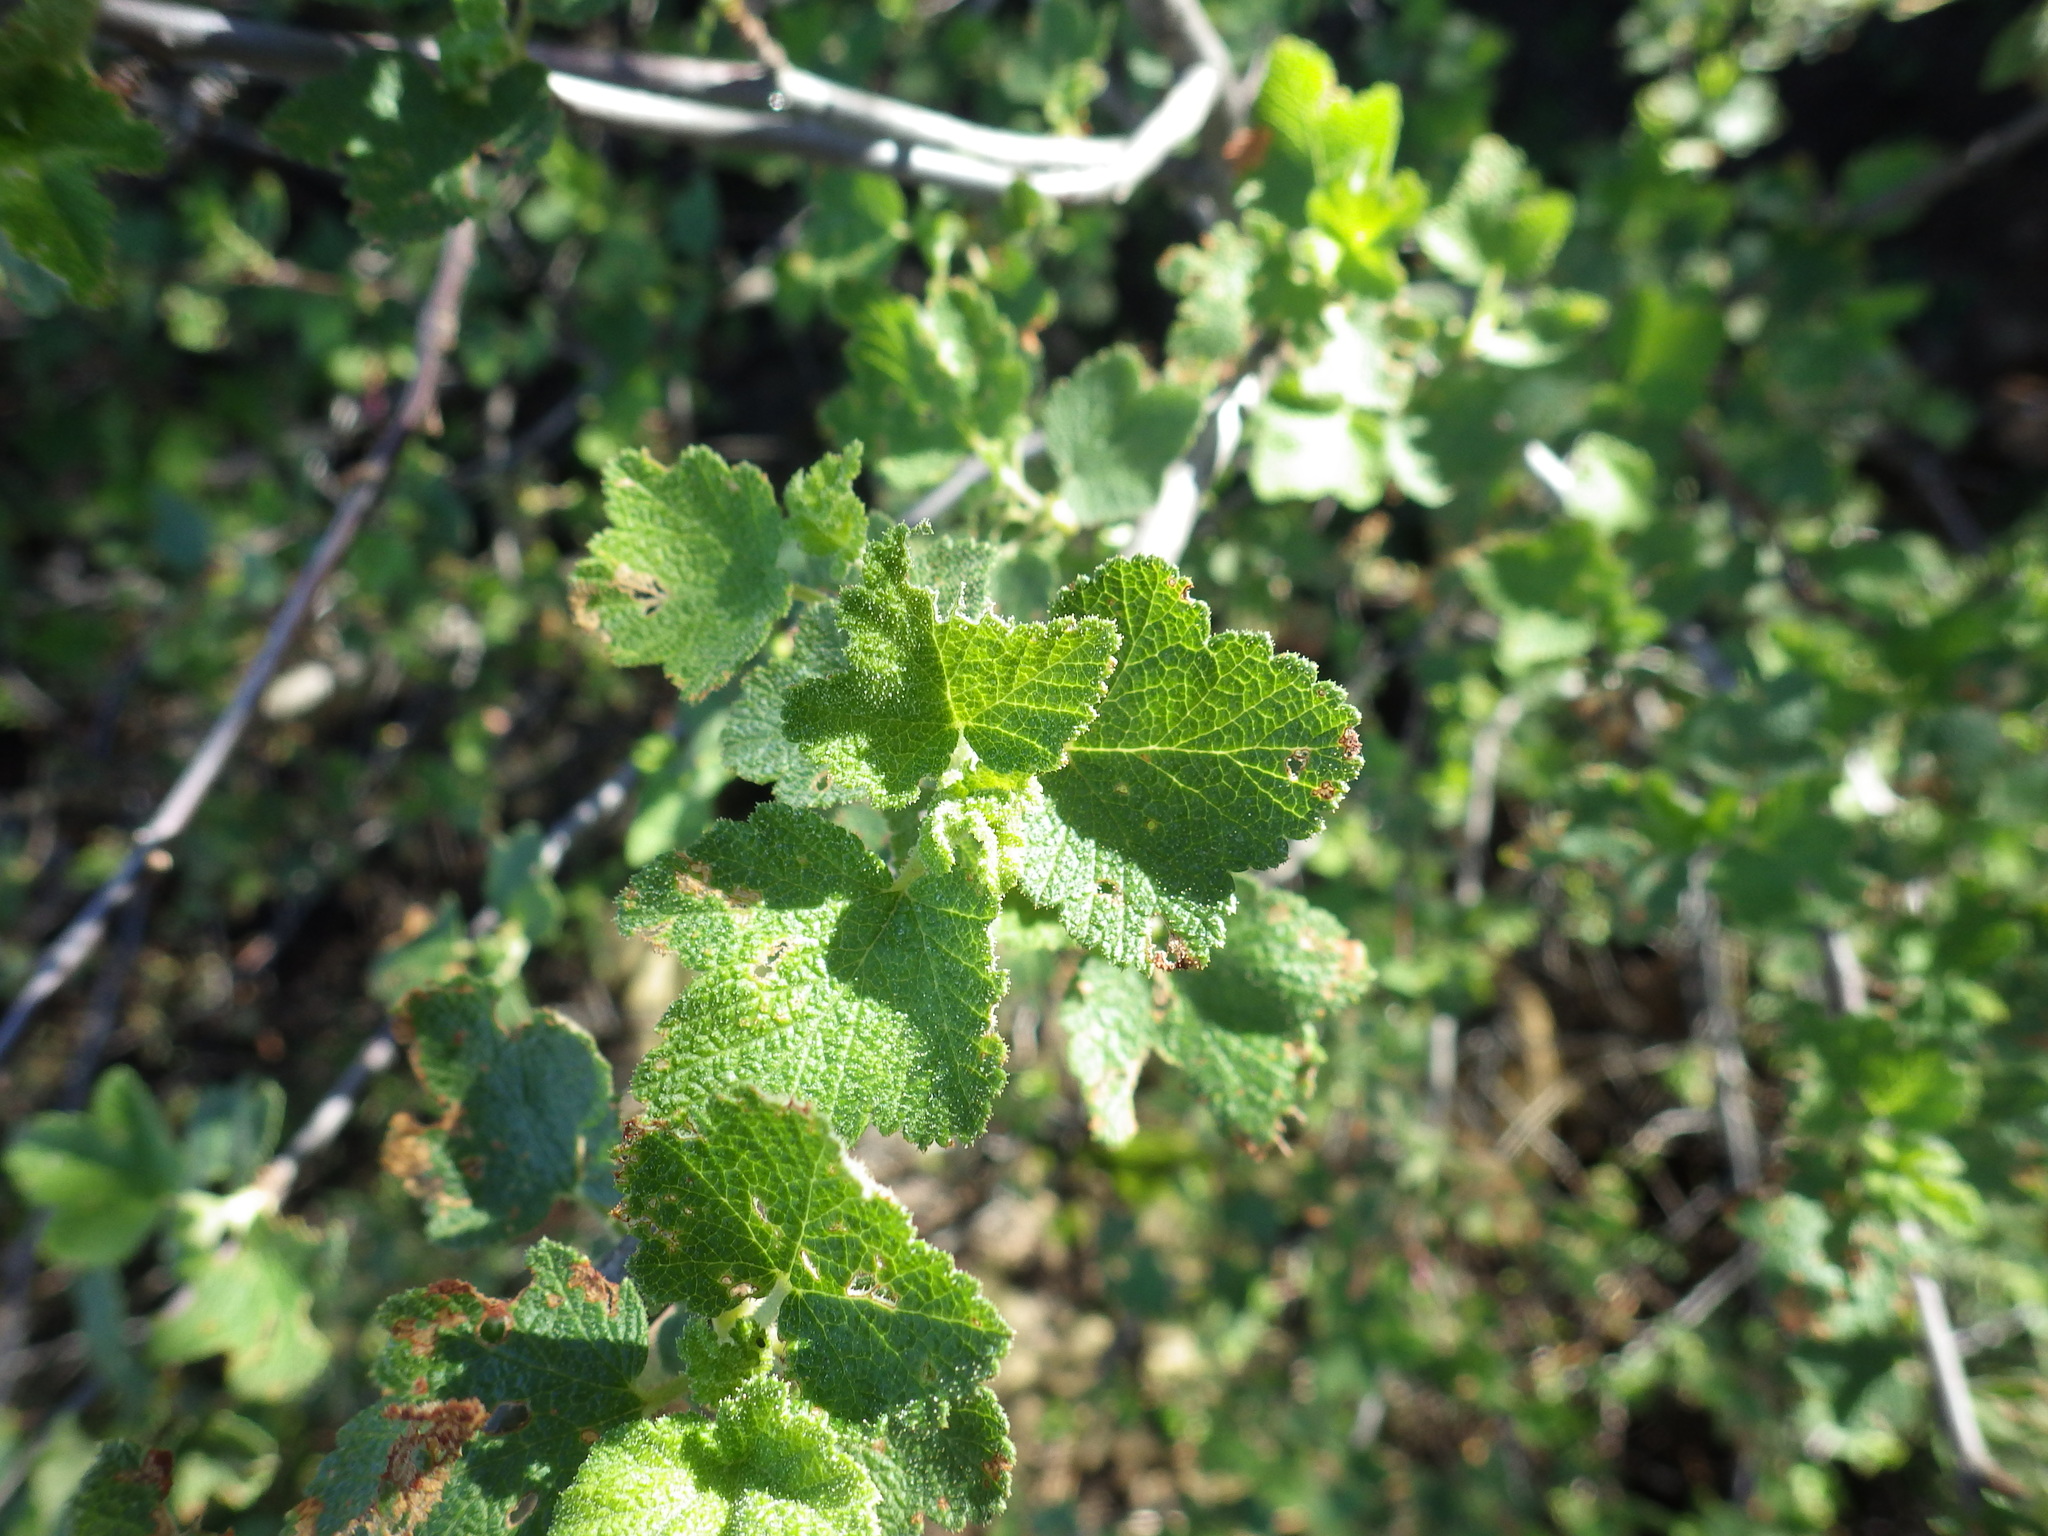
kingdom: Plantae
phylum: Tracheophyta
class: Magnoliopsida
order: Saxifragales
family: Grossulariaceae
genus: Ribes
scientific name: Ribes malvaceum
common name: Chaparral currant
